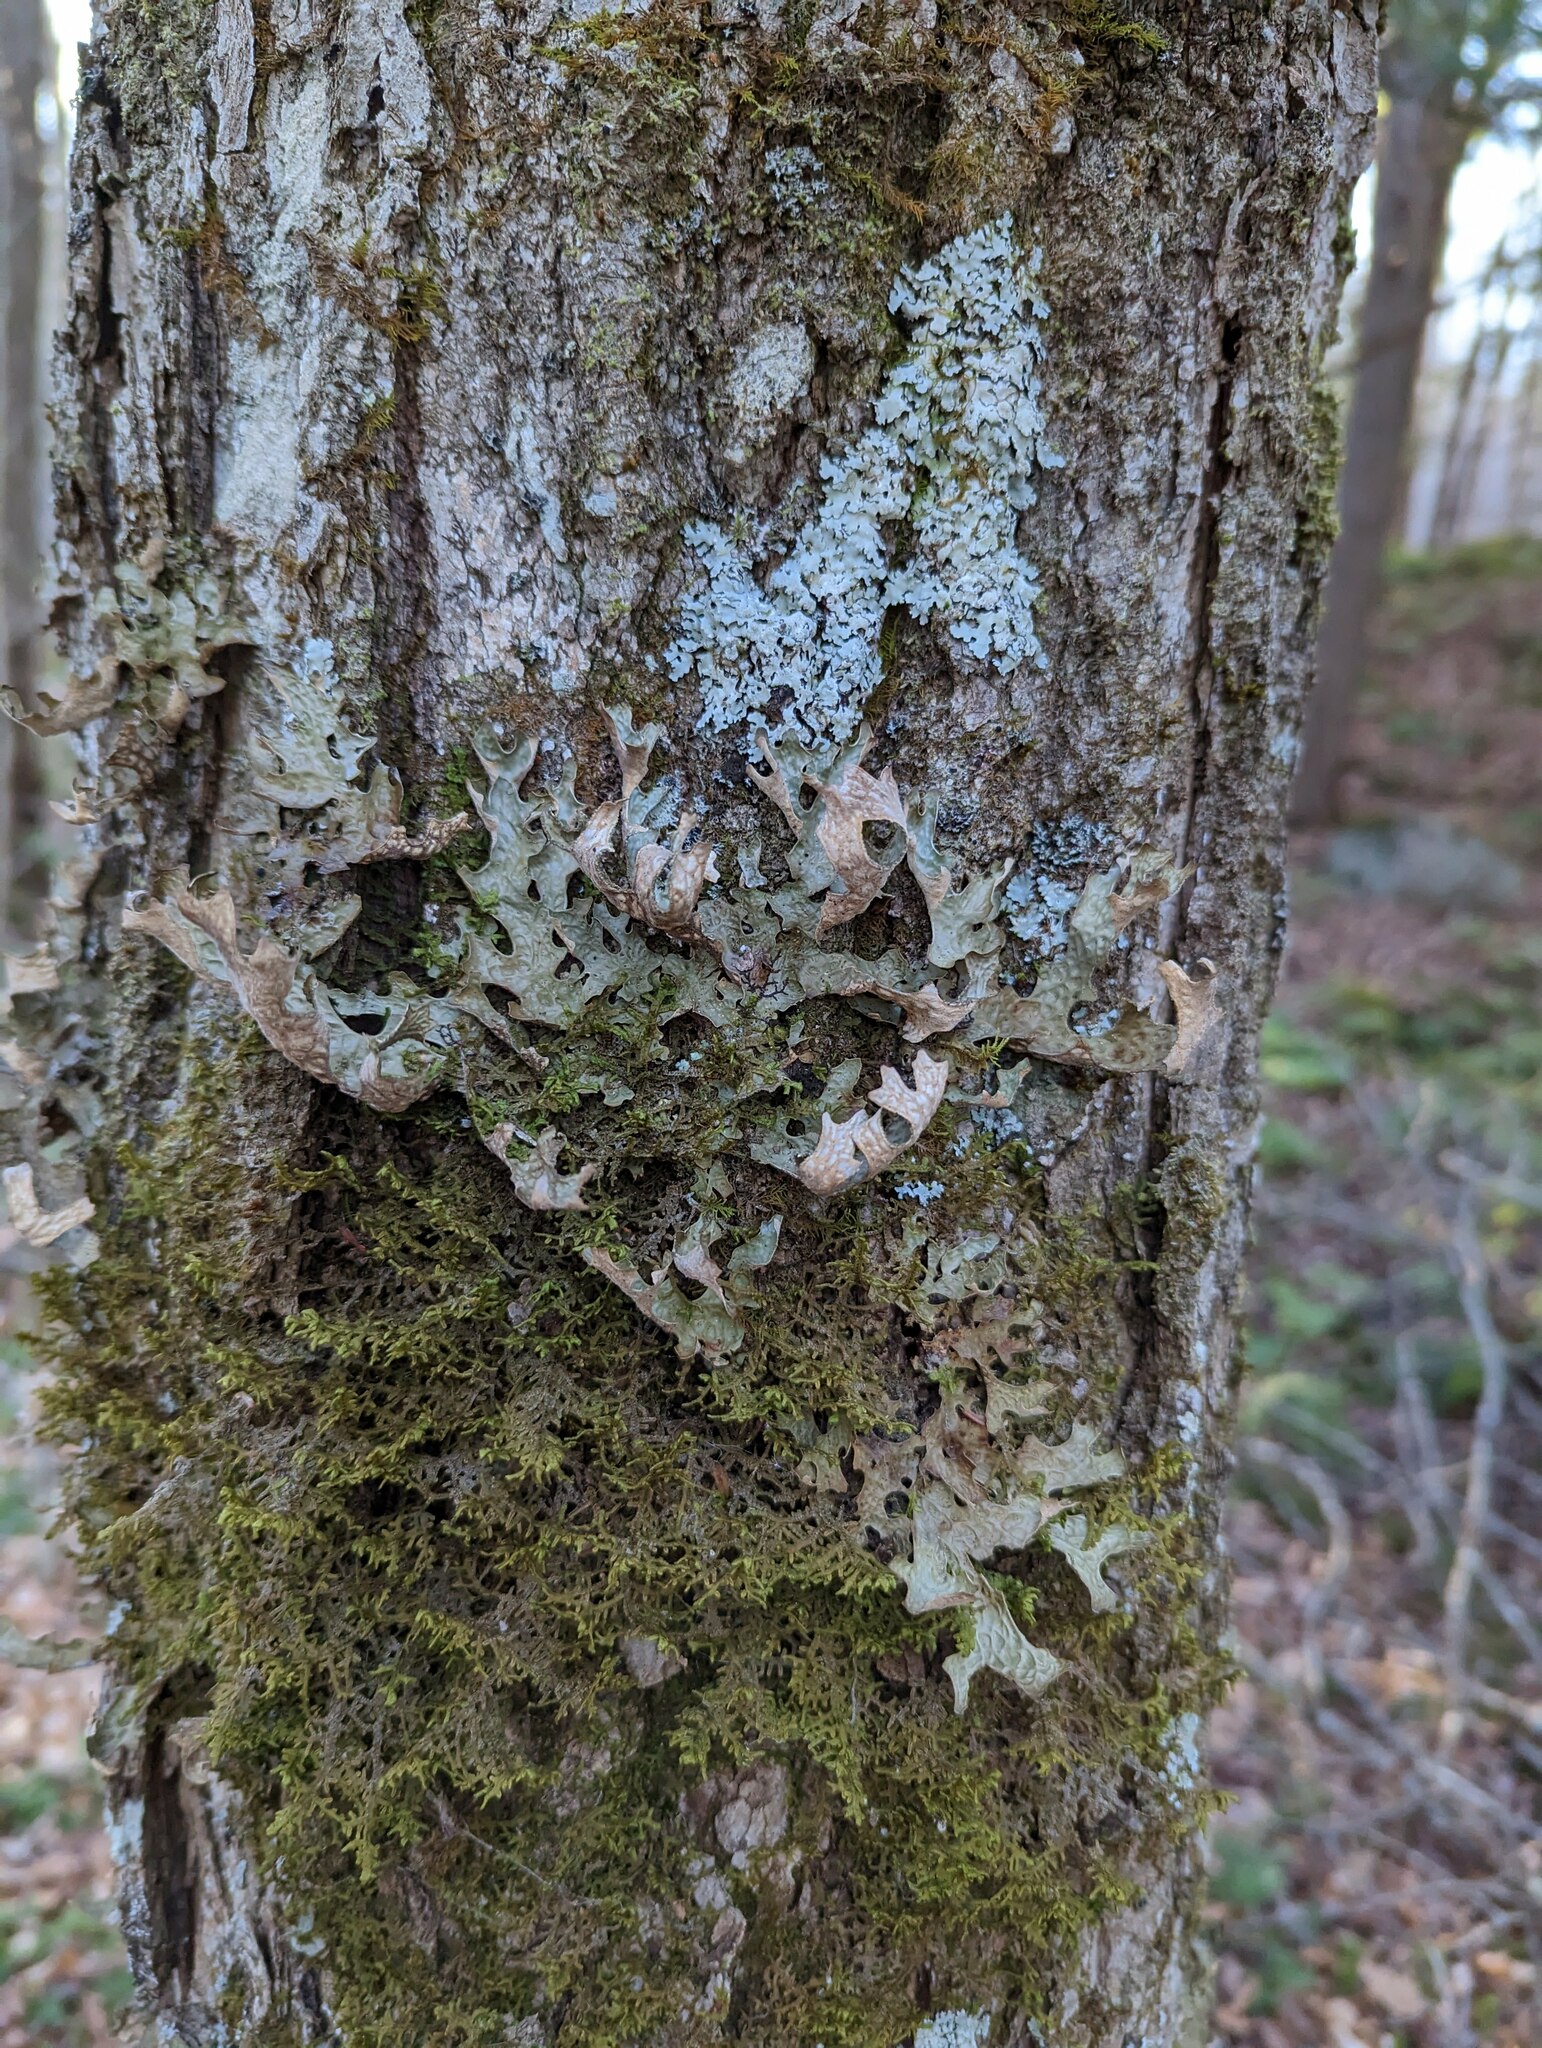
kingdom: Fungi
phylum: Ascomycota
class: Lecanoromycetes
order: Peltigerales
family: Lobariaceae
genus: Lobaria
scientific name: Lobaria pulmonaria
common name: Lungwort
